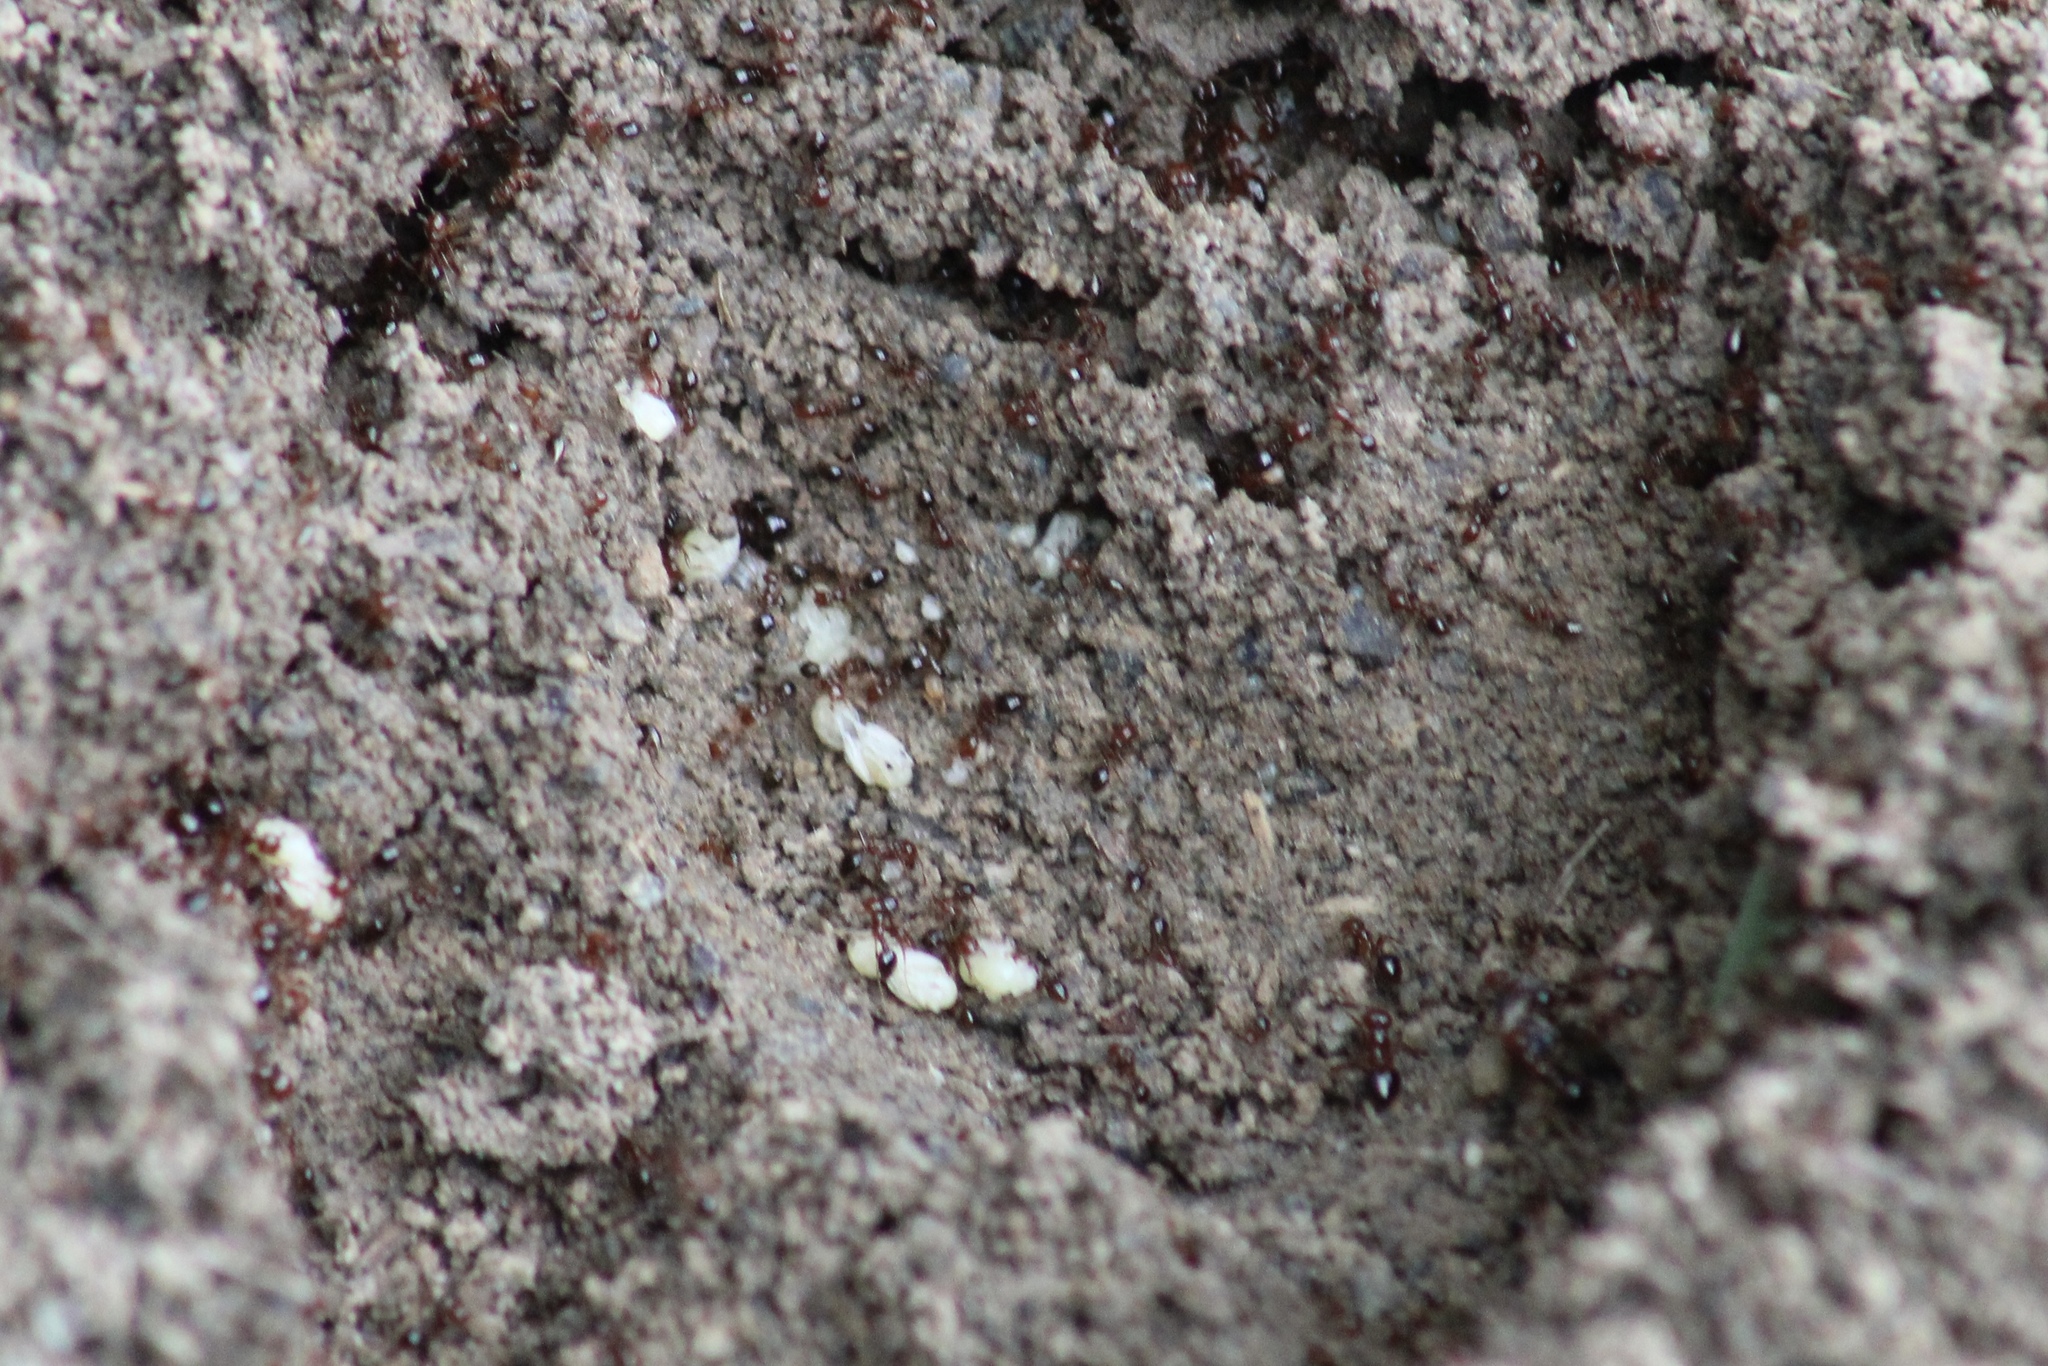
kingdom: Animalia
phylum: Arthropoda
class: Insecta
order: Hymenoptera
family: Formicidae
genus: Solenopsis
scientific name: Solenopsis invicta
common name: Red imported fire ant
